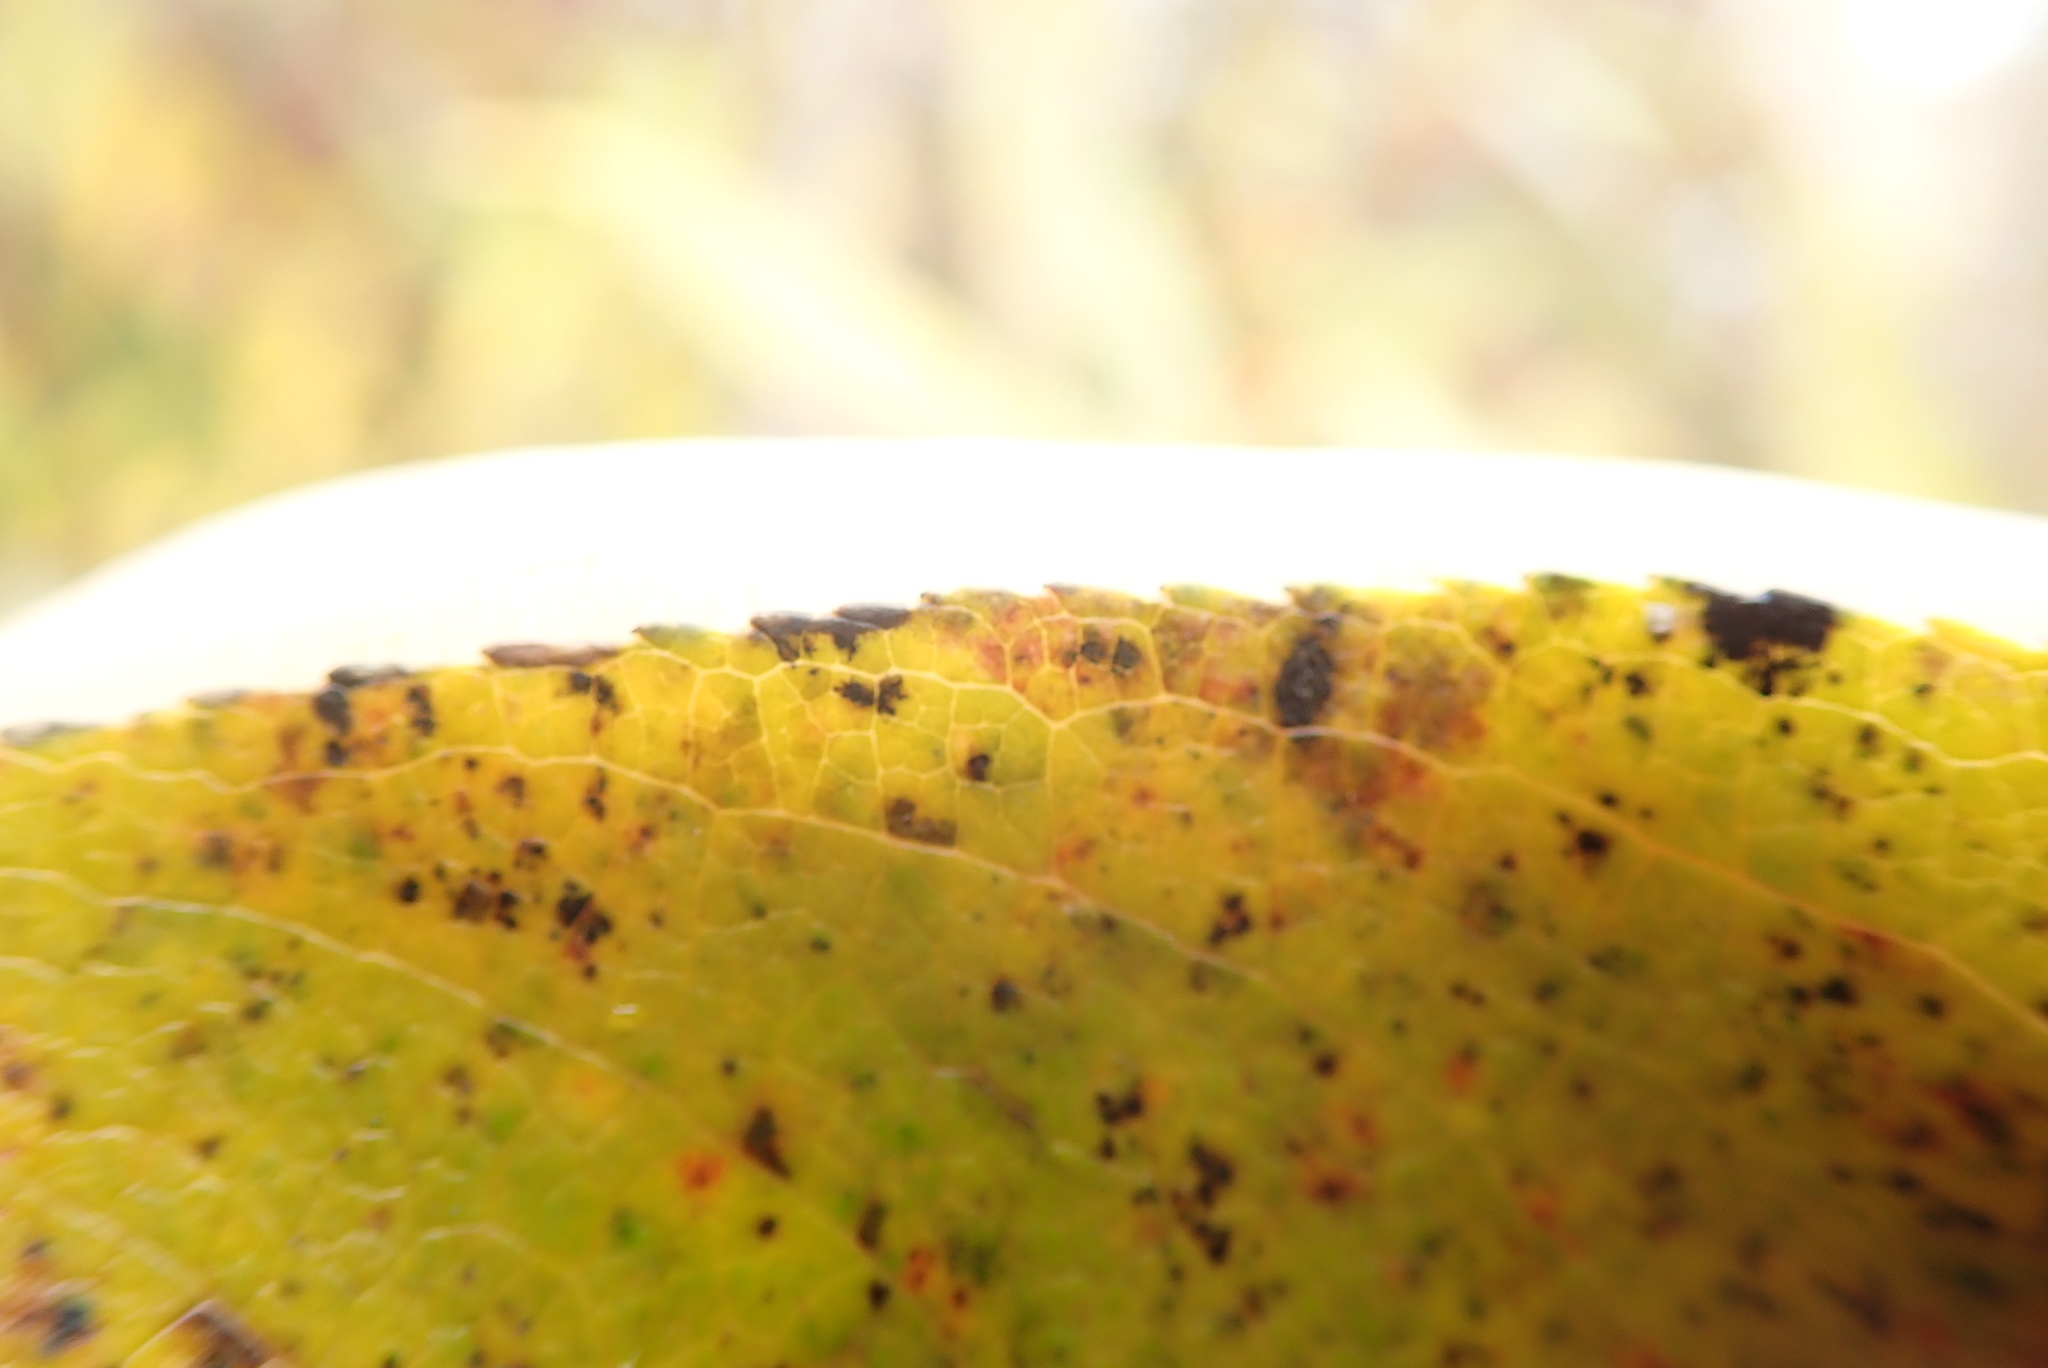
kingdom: Plantae
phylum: Tracheophyta
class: Magnoliopsida
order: Malpighiales
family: Salicaceae
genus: Salix
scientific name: Salix lucida
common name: Shining willow
